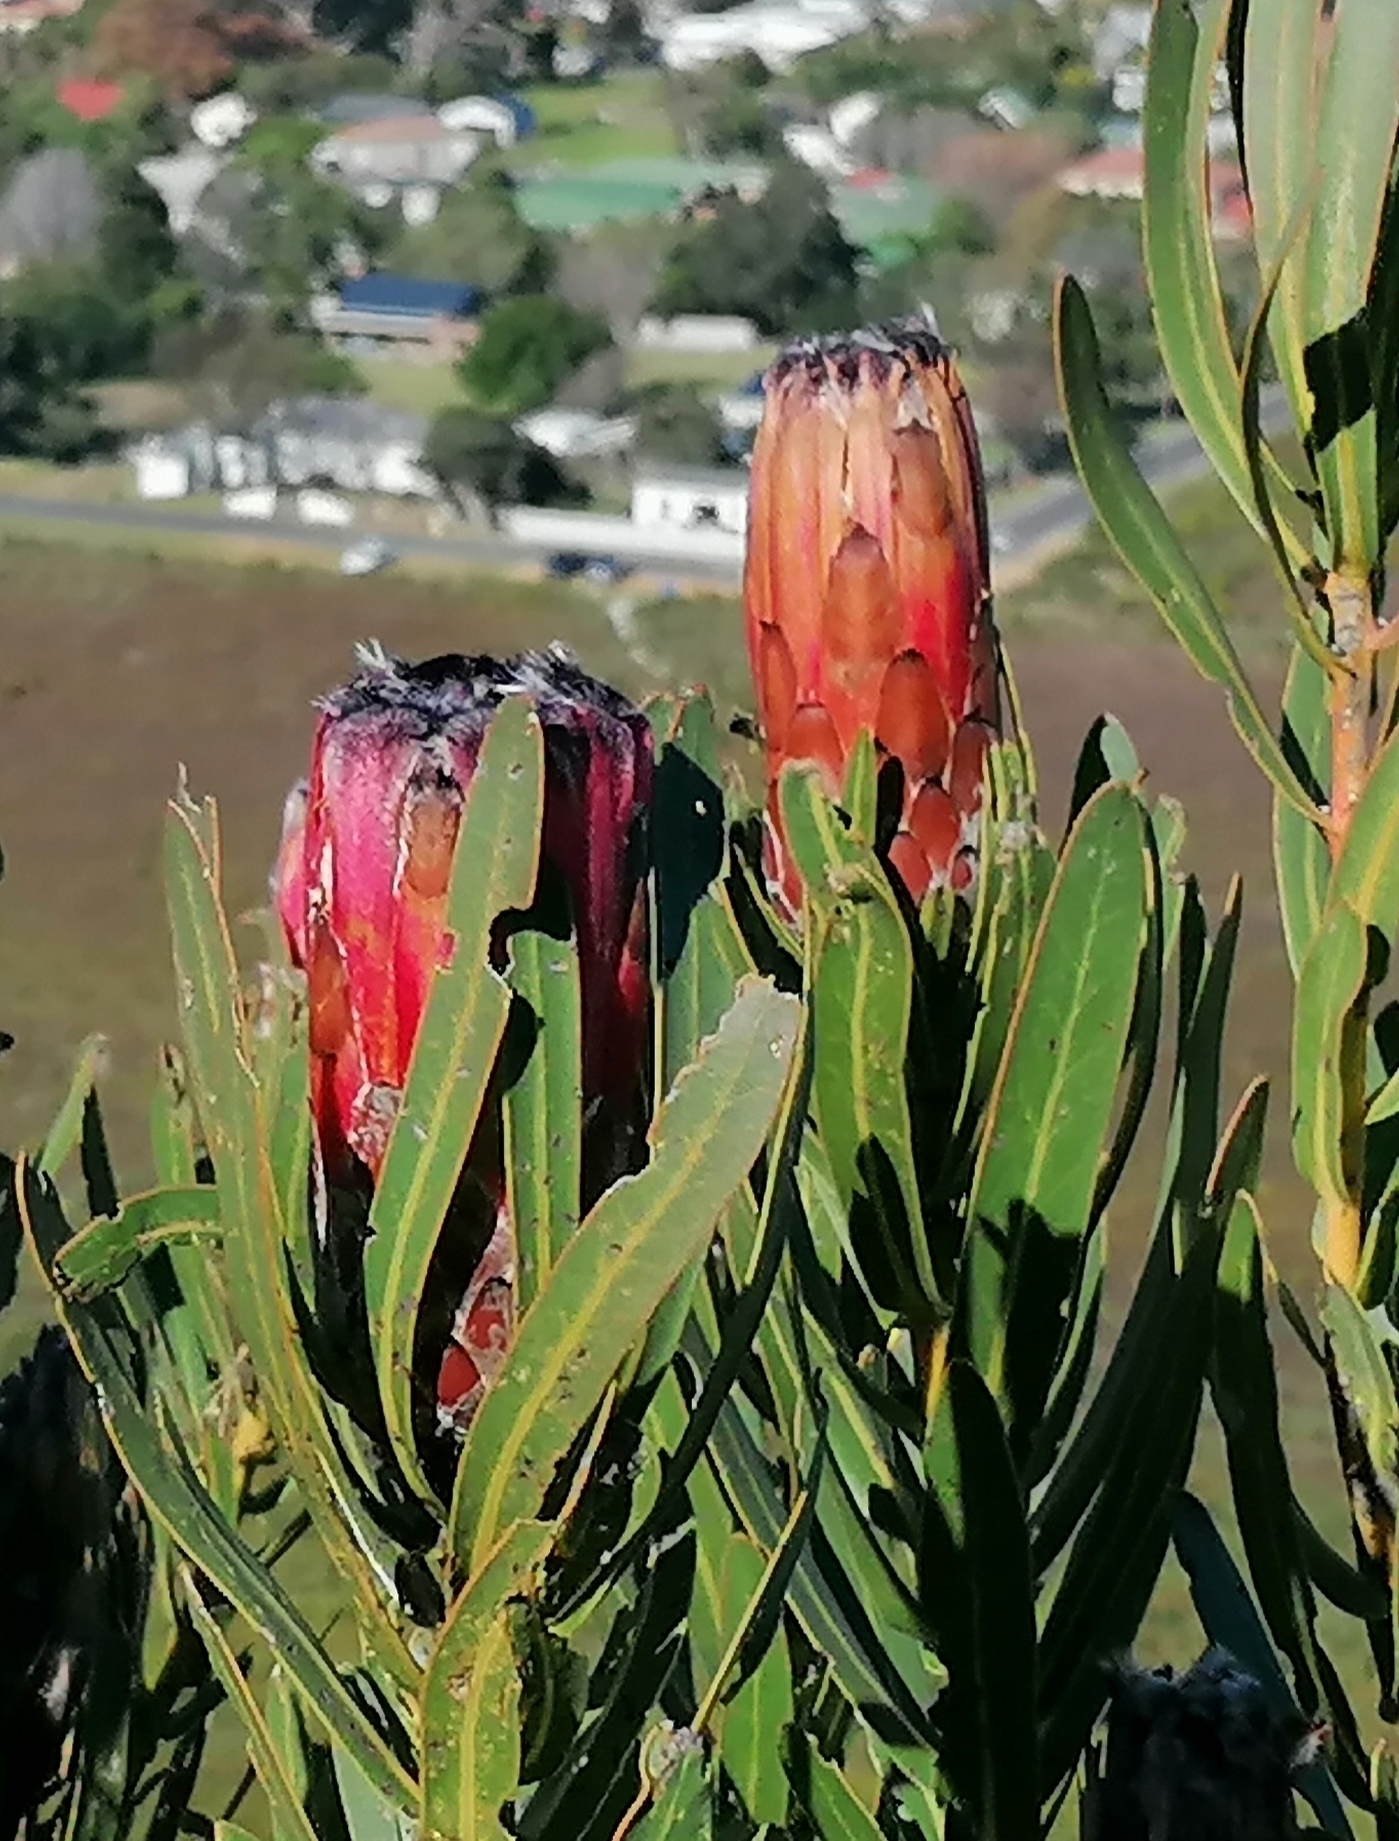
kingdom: Plantae
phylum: Tracheophyta
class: Magnoliopsida
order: Proteales
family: Proteaceae
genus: Protea
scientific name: Protea
